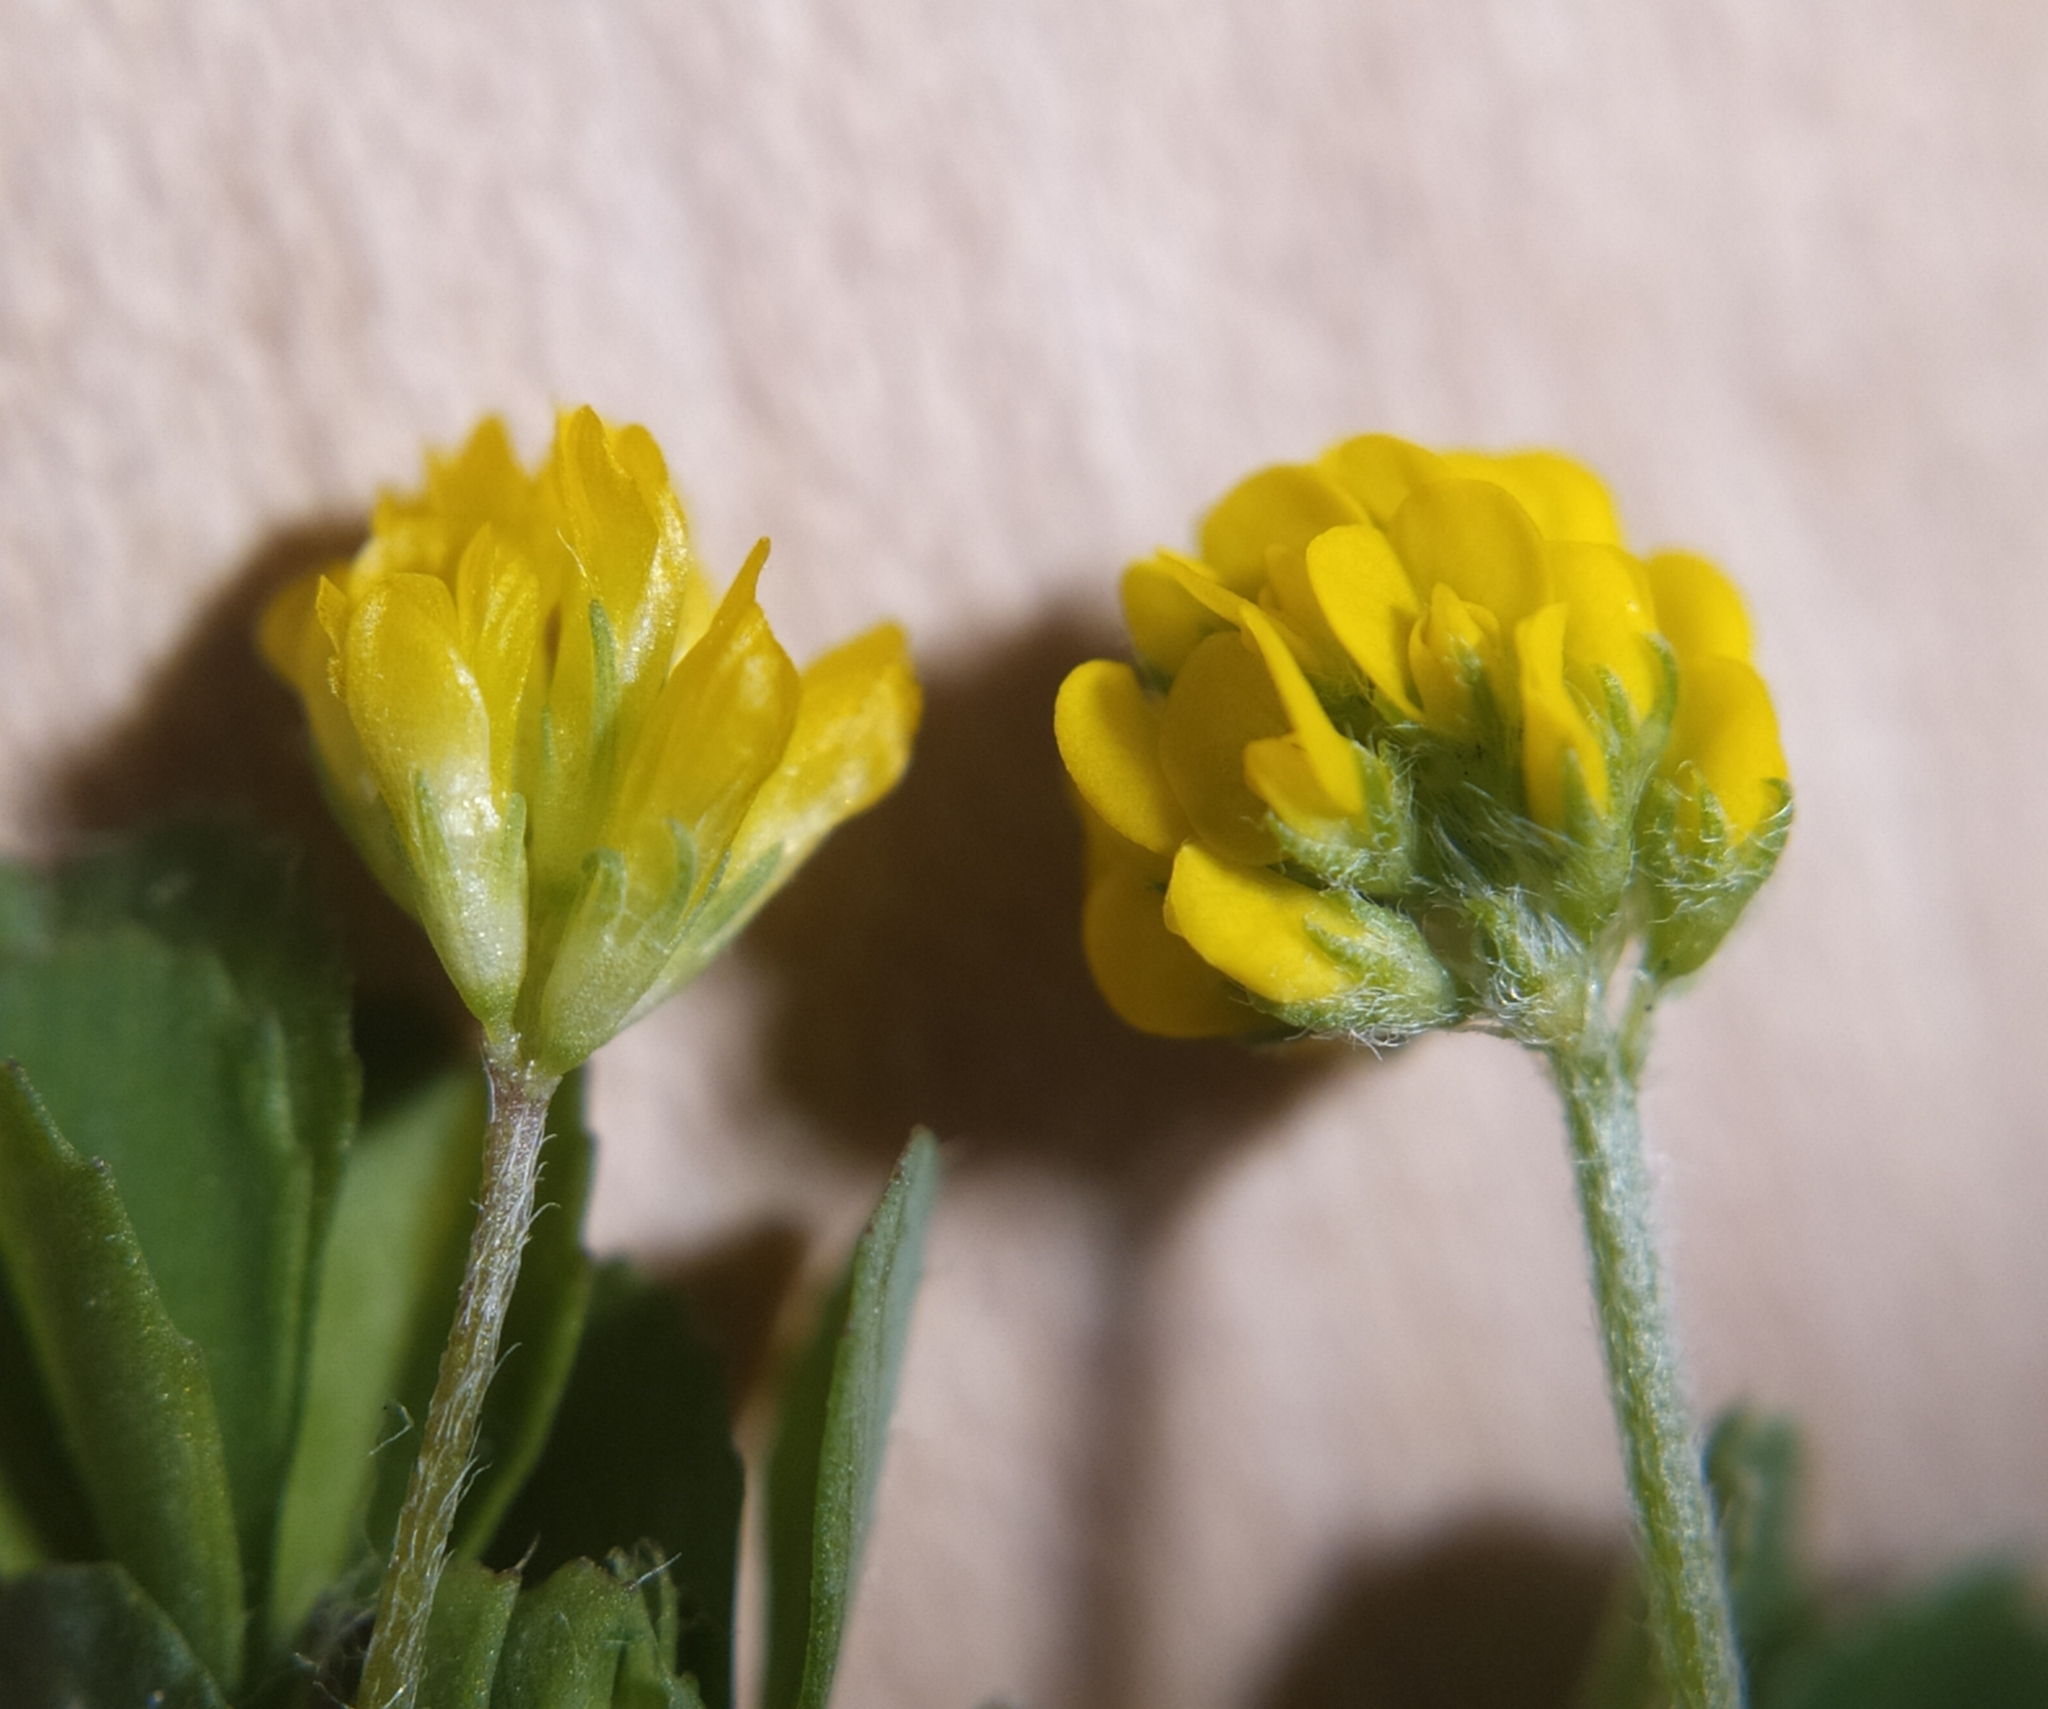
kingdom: Plantae
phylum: Tracheophyta
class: Magnoliopsida
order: Fabales
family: Fabaceae
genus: Trifolium
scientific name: Trifolium dubium
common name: Suckling clover
